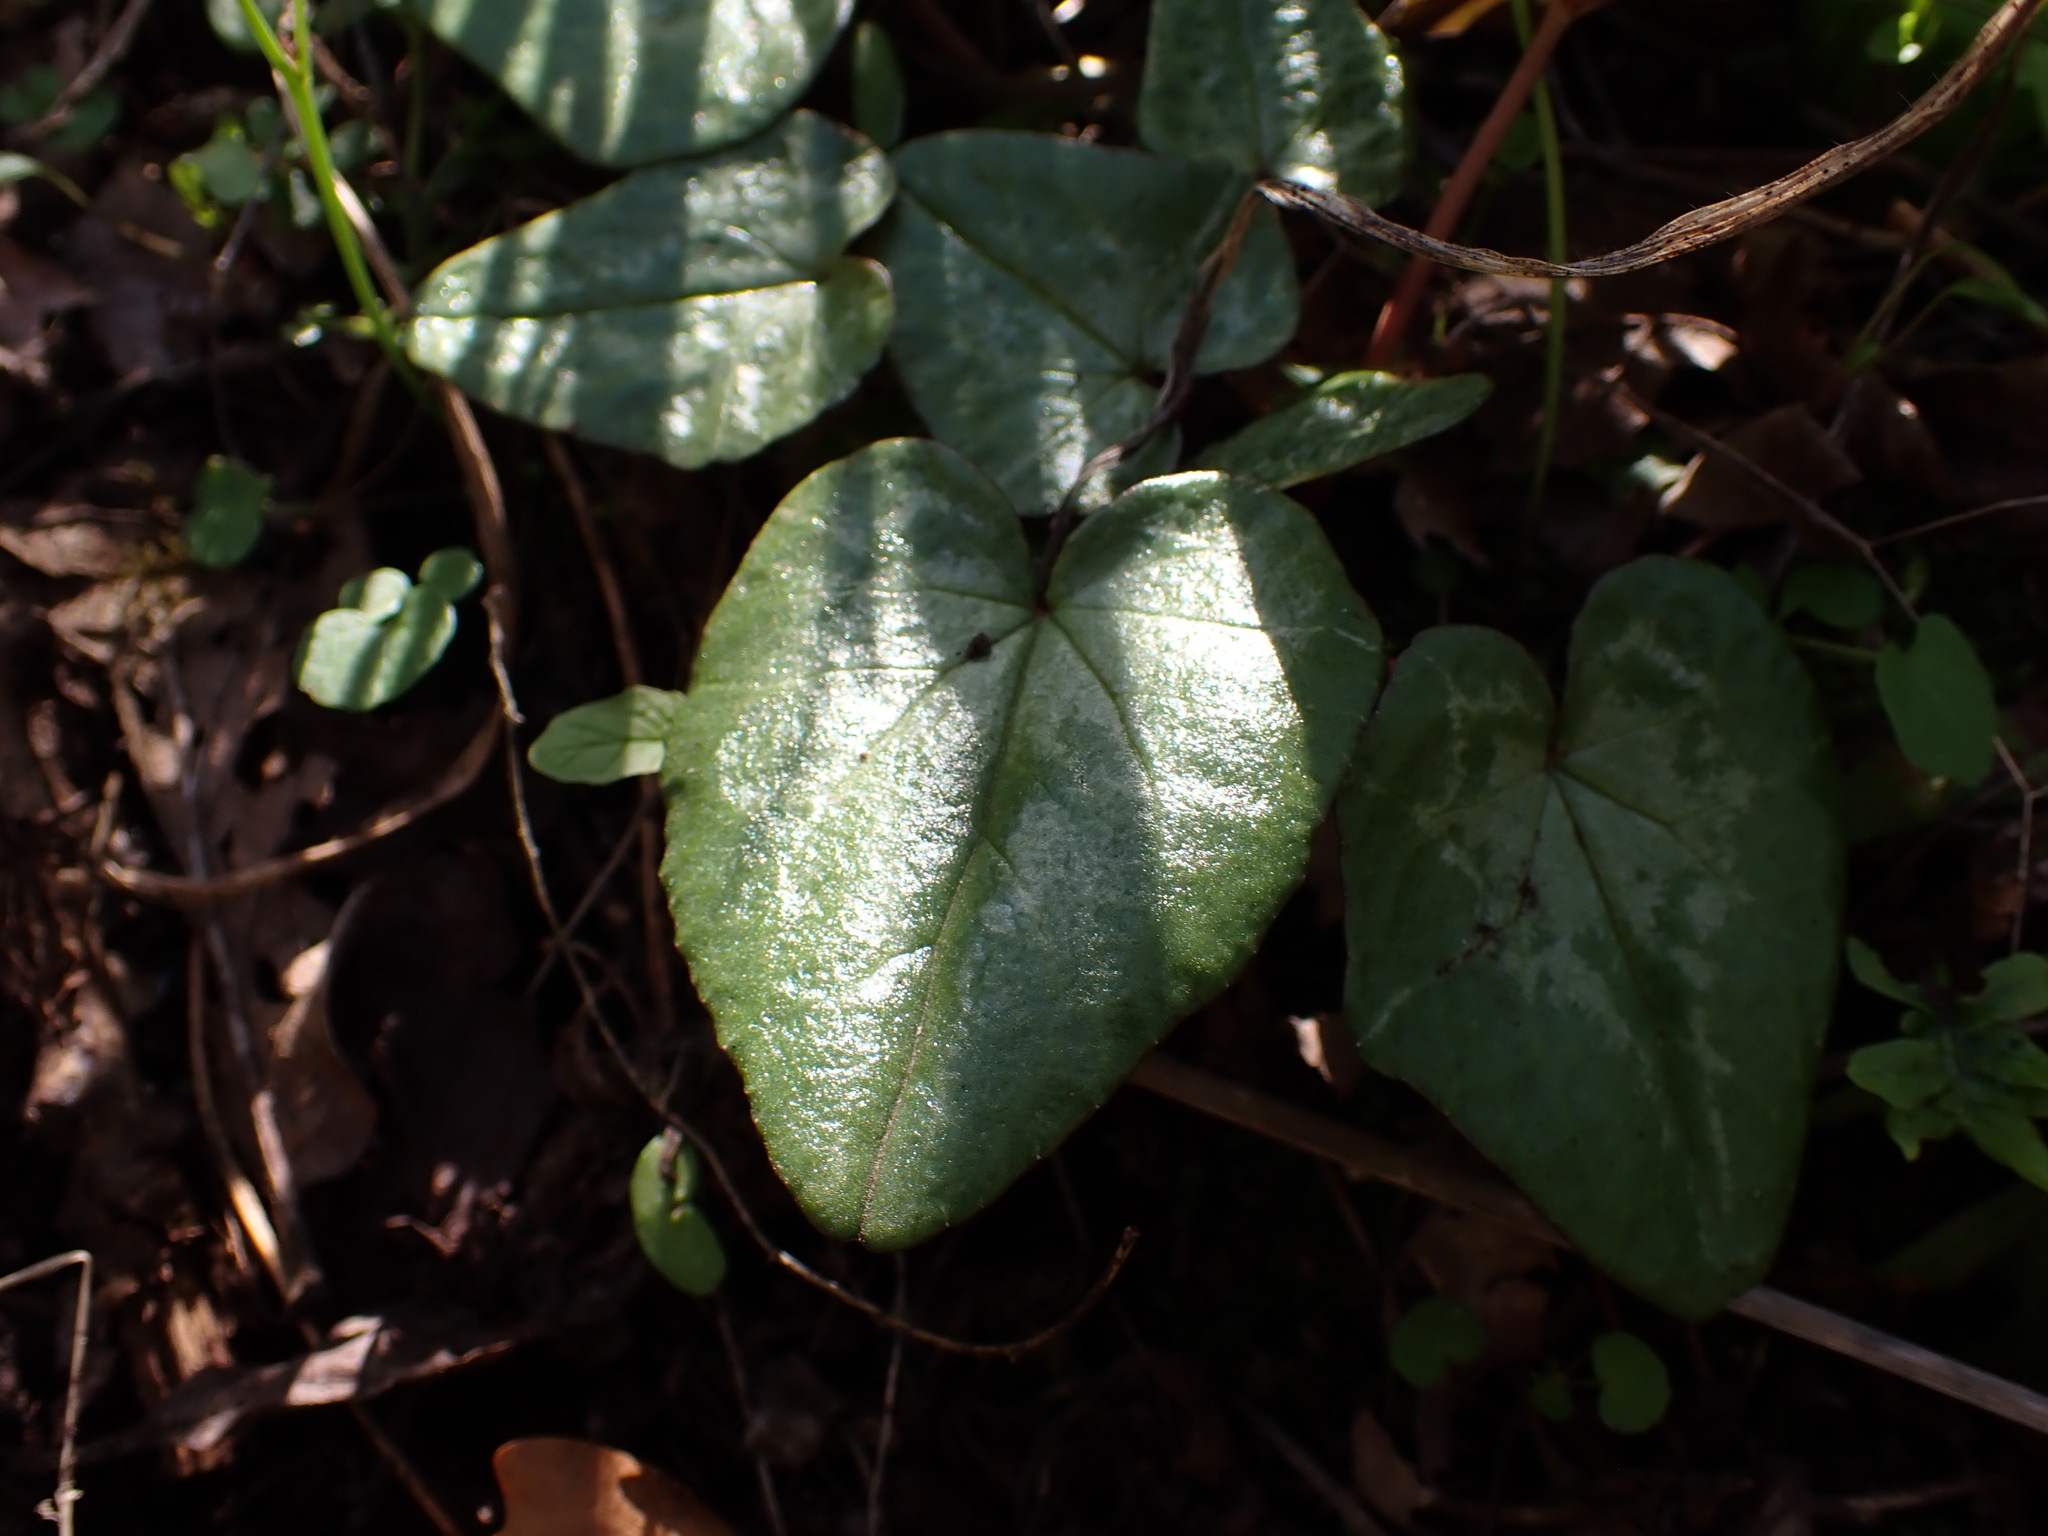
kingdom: Plantae
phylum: Tracheophyta
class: Magnoliopsida
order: Ericales
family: Primulaceae
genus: Cyclamen
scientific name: Cyclamen hederifolium
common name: Sowbread
